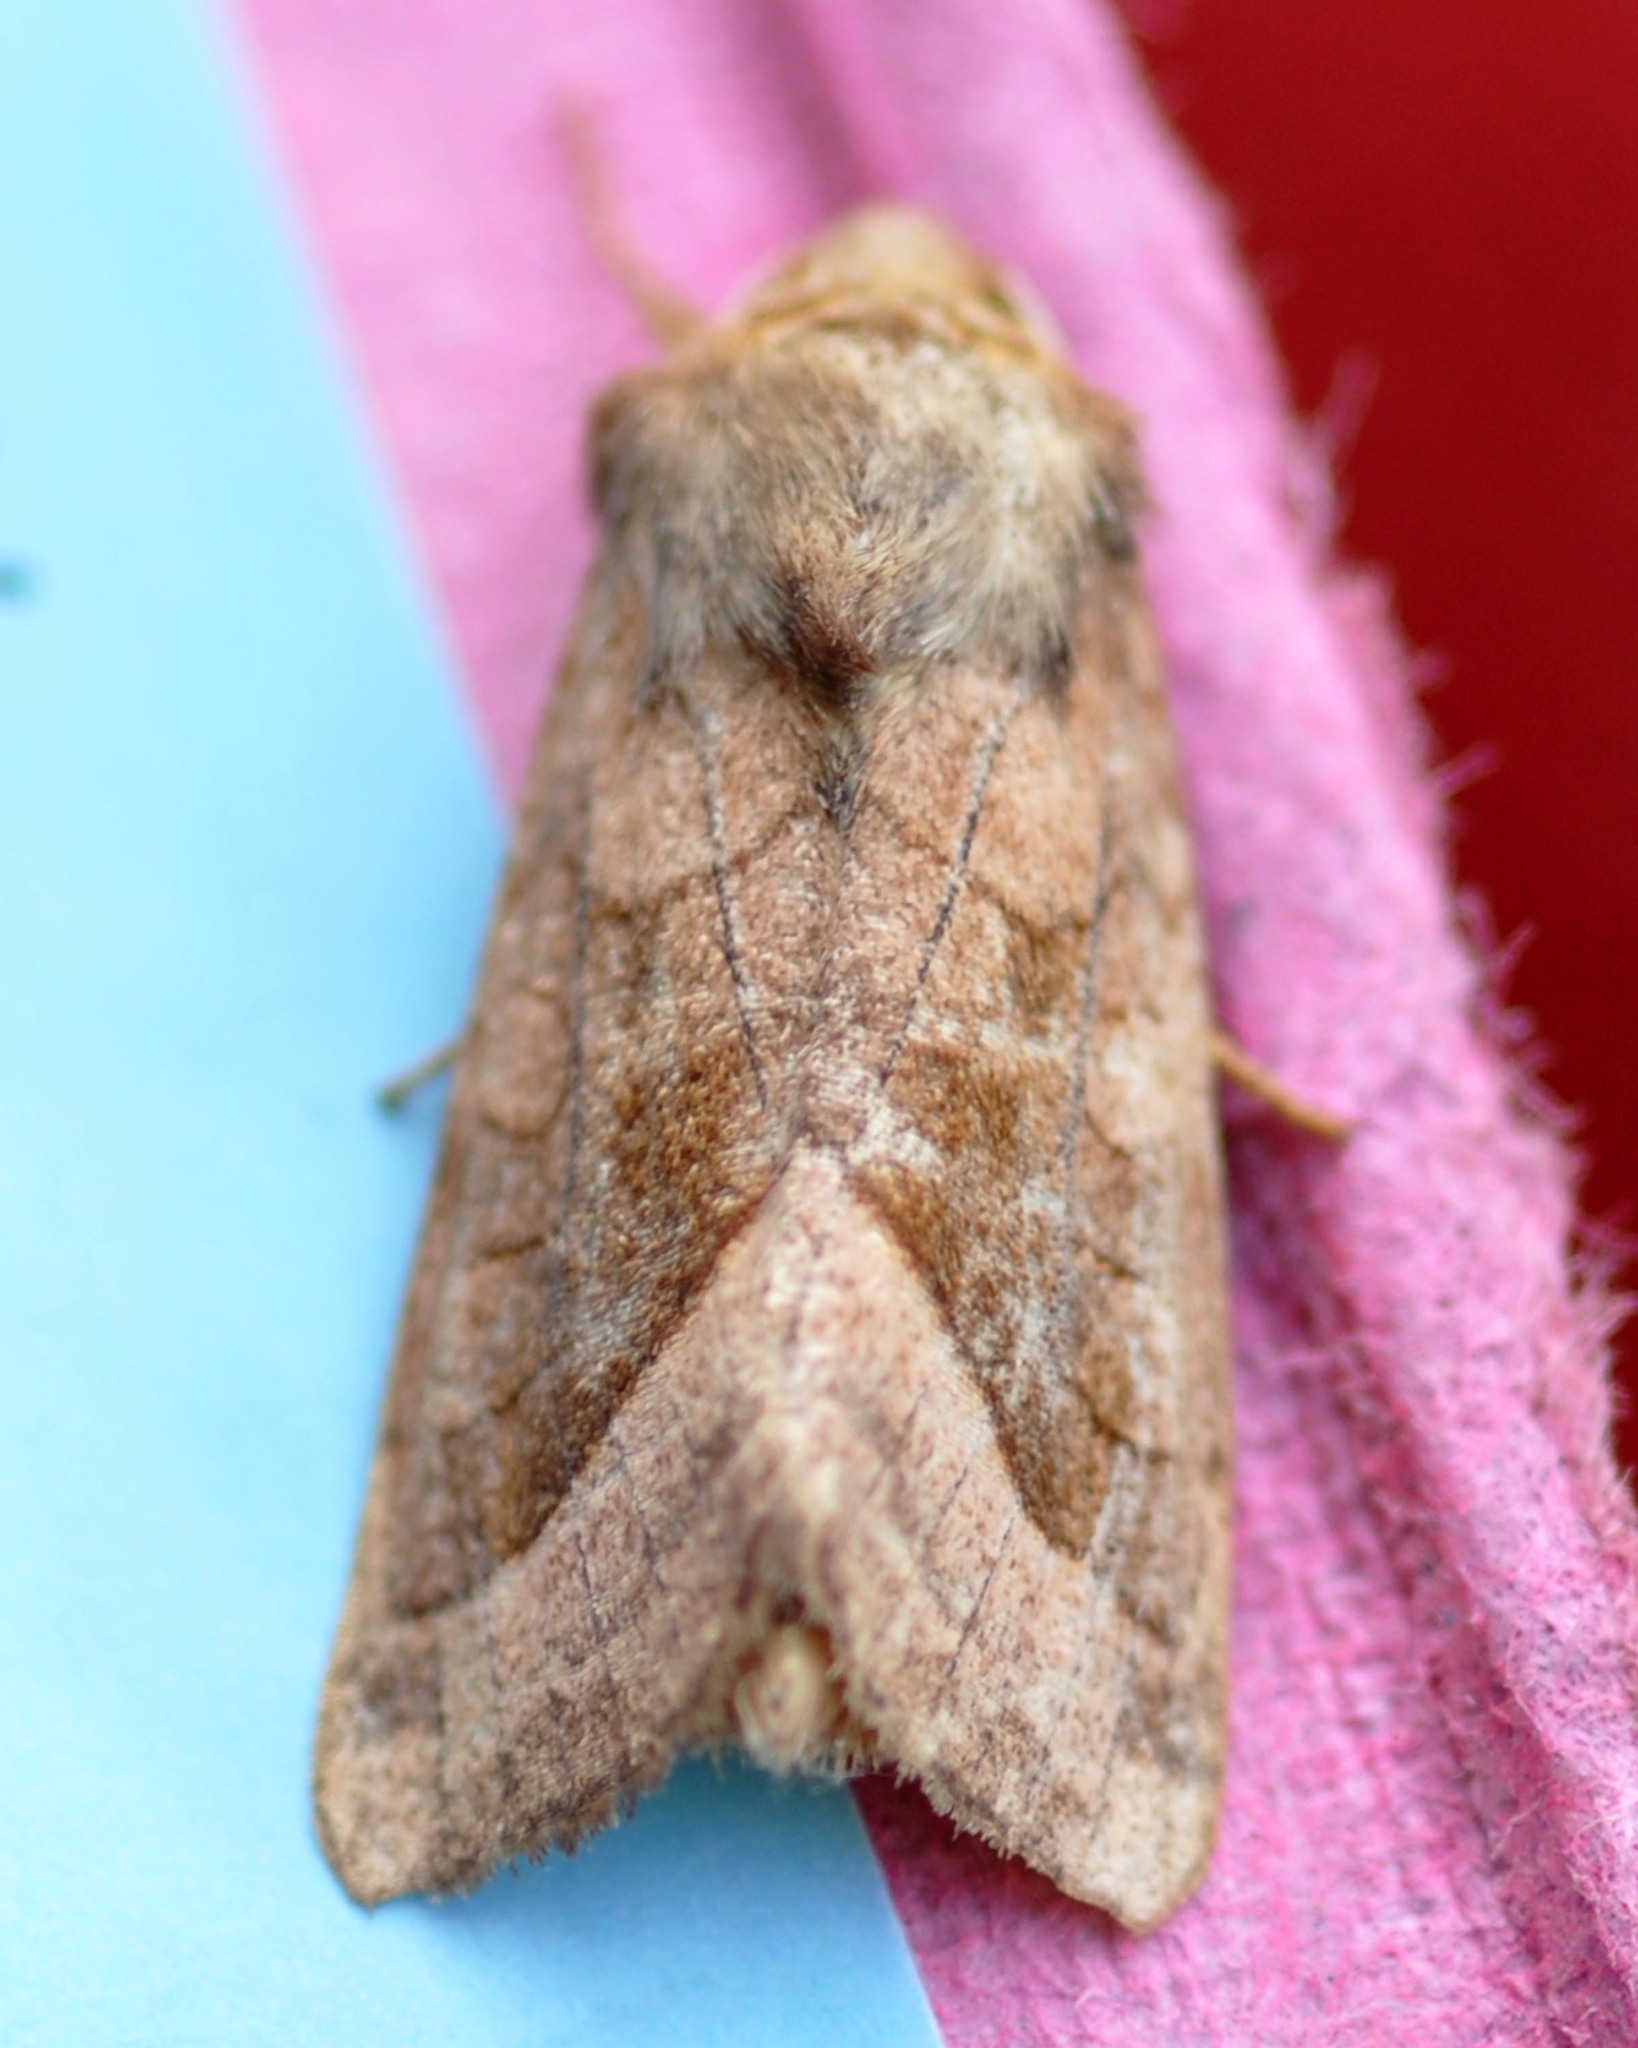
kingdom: Animalia
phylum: Arthropoda
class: Insecta
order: Lepidoptera
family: Noctuidae
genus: Hydraecia
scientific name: Hydraecia micacea
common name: Rosy rustic
